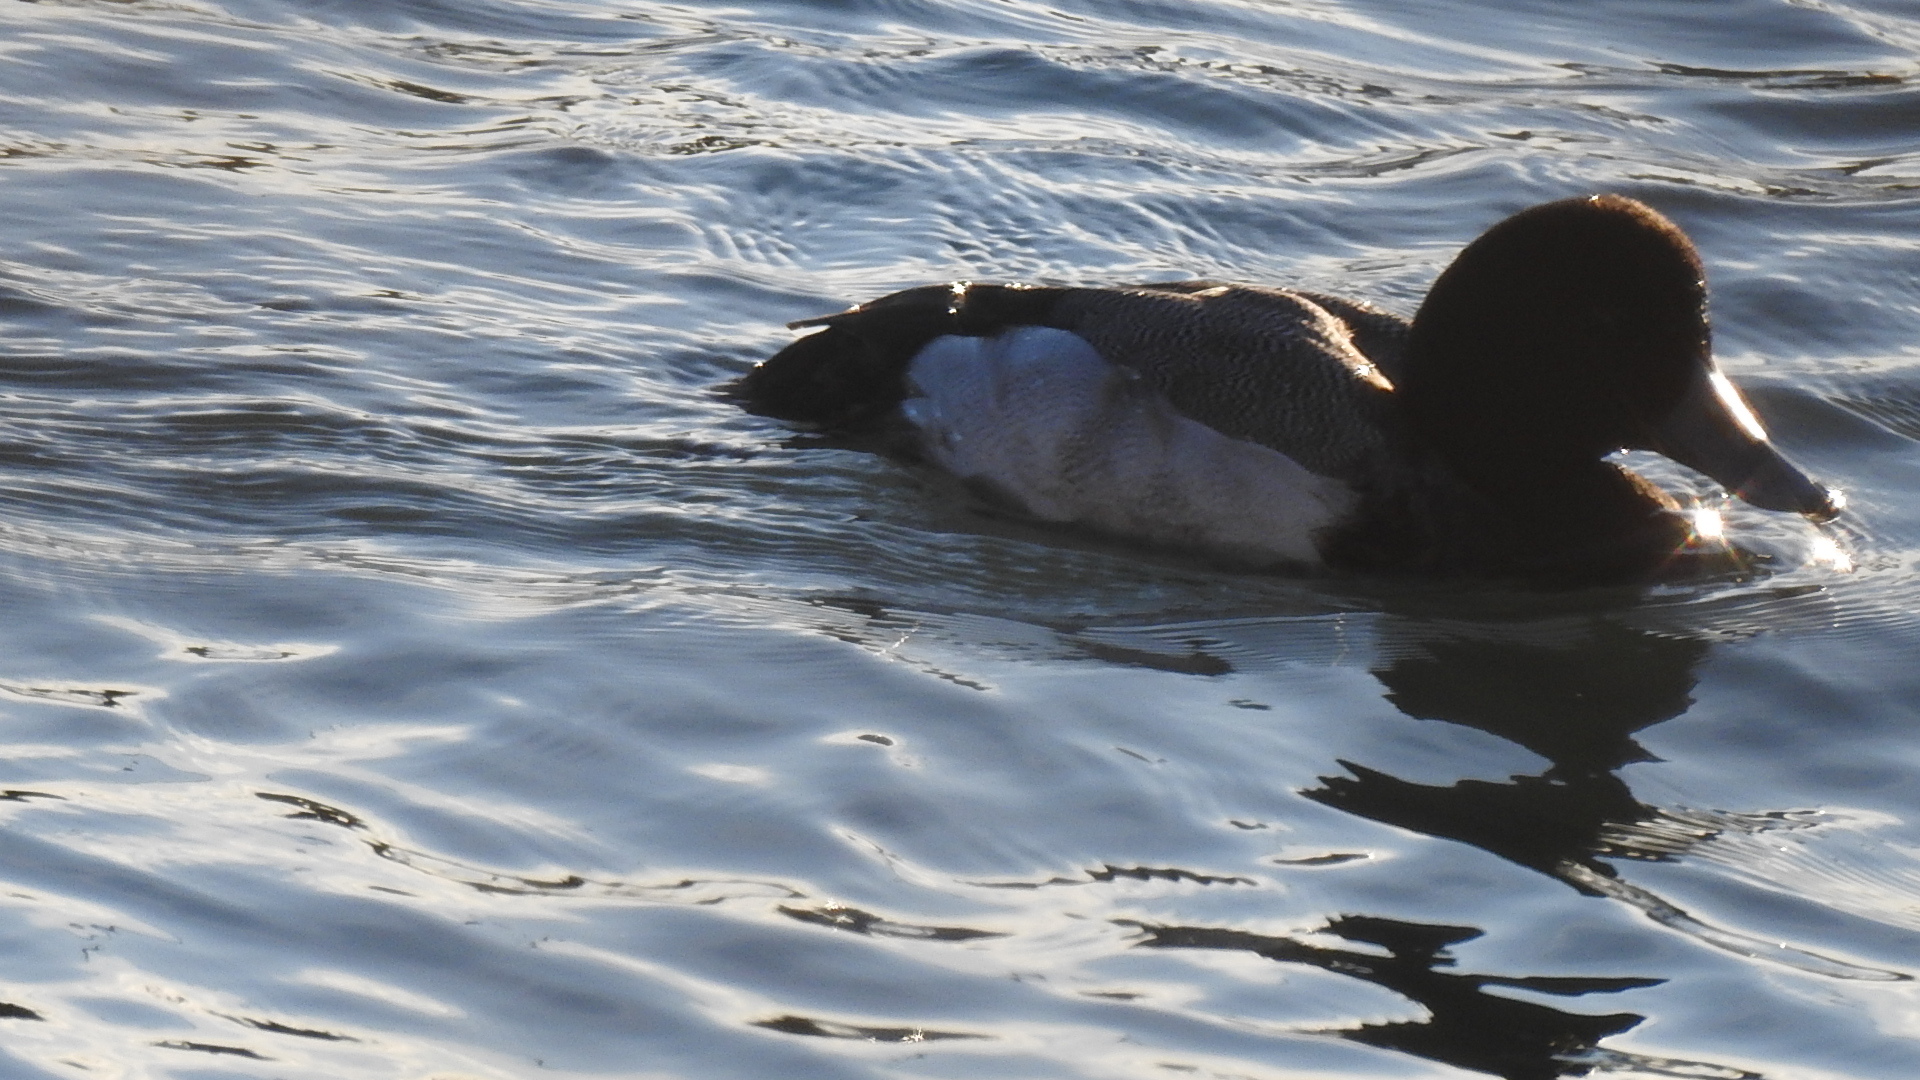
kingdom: Animalia
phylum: Chordata
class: Aves
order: Anseriformes
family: Anatidae
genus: Aythya
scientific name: Aythya marila
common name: Greater scaup
